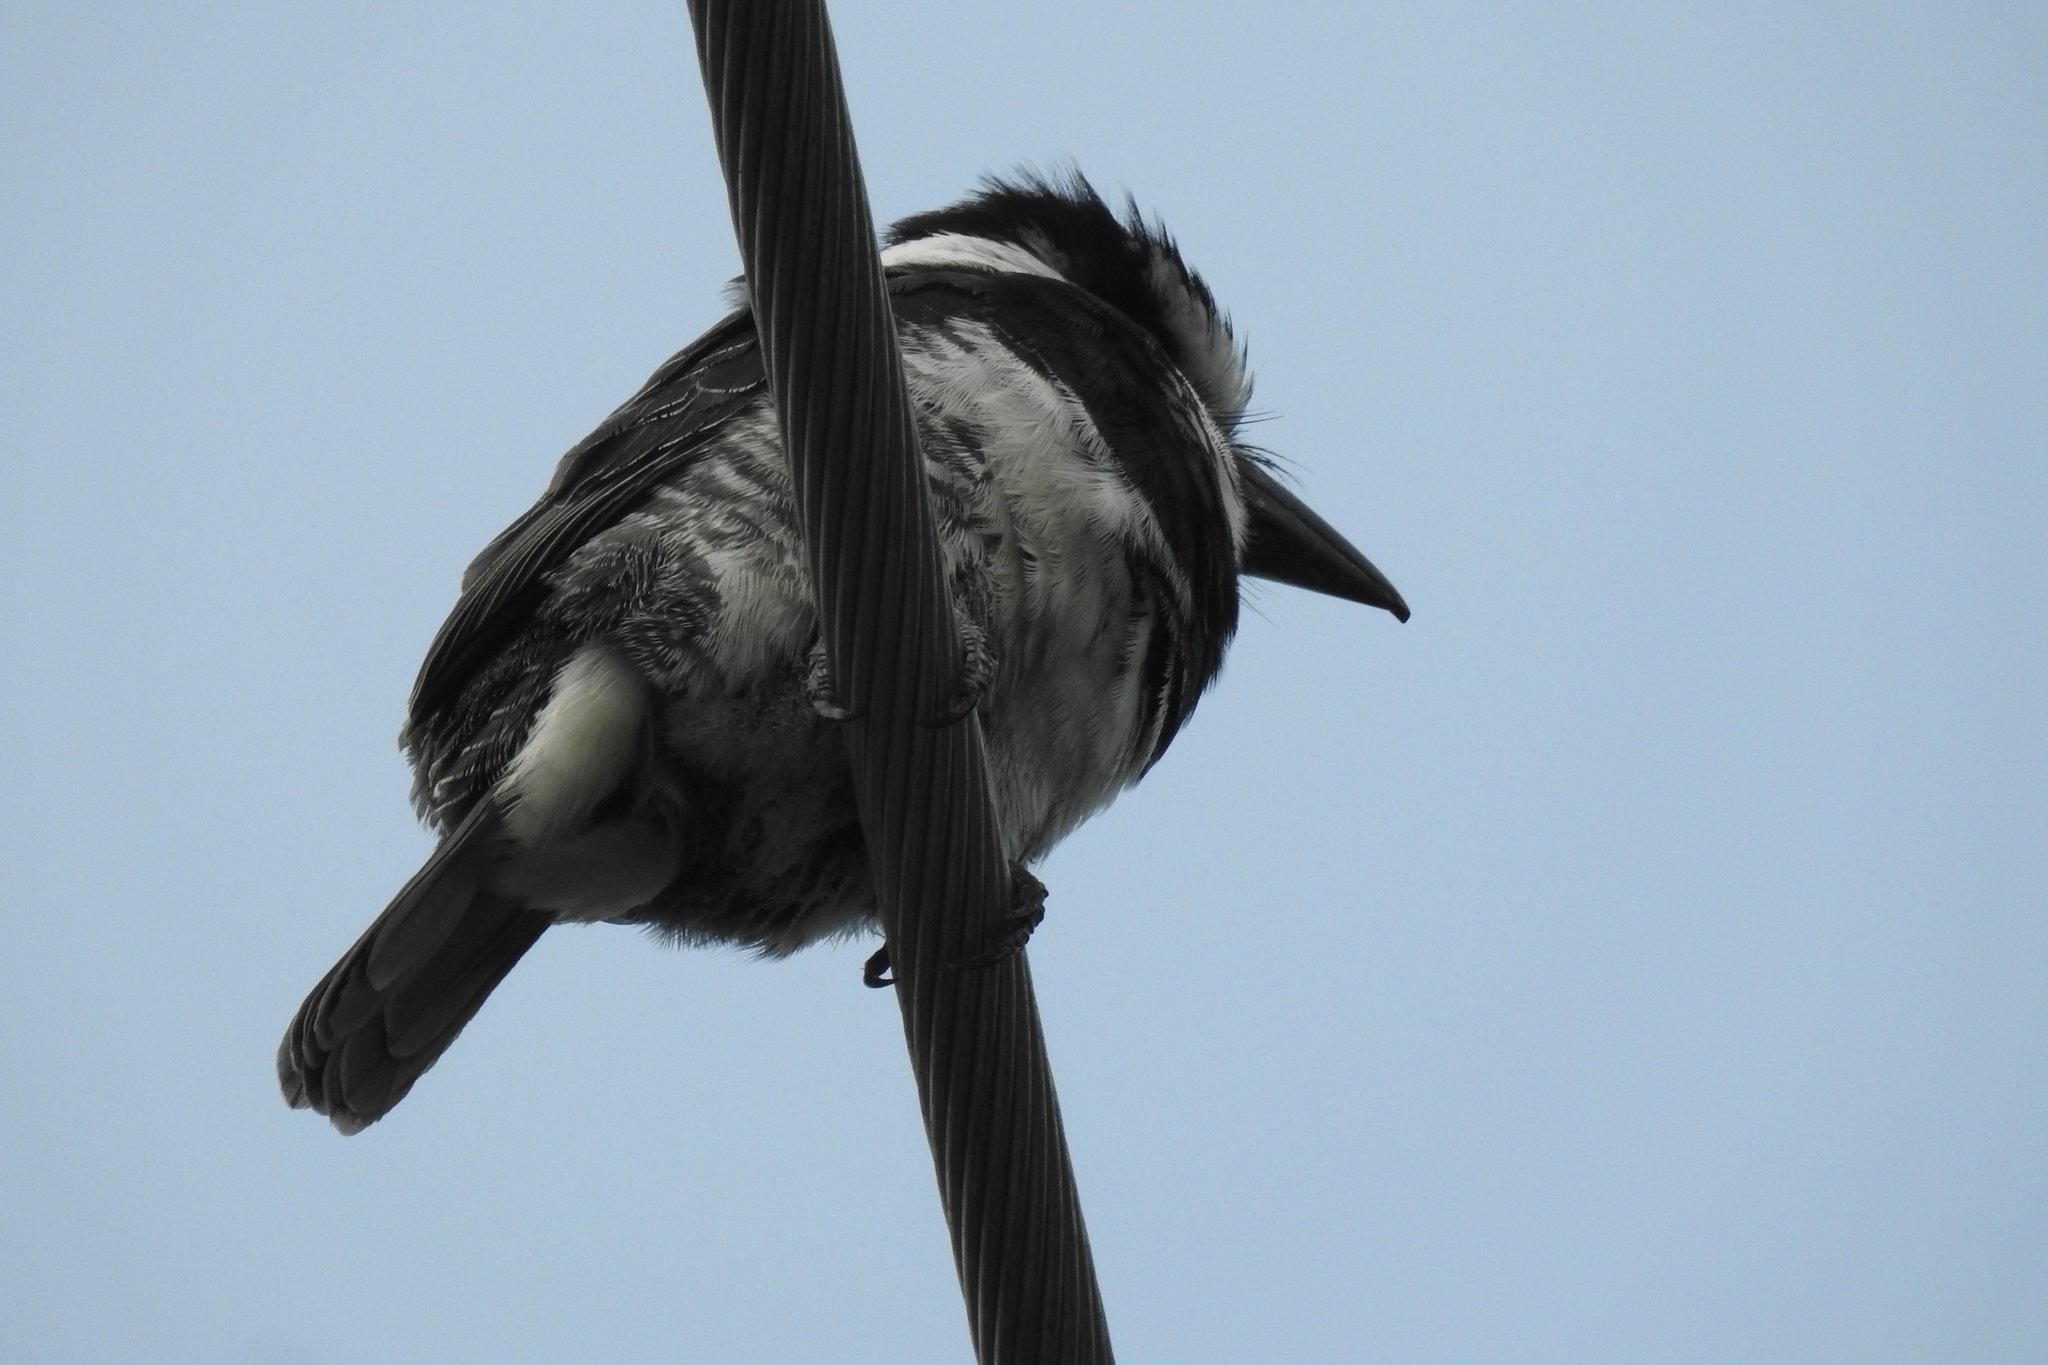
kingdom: Animalia
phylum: Chordata
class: Aves
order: Piciformes
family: Bucconidae
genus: Notharchus
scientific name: Notharchus hyperrhynchus
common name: White-necked puffbird
